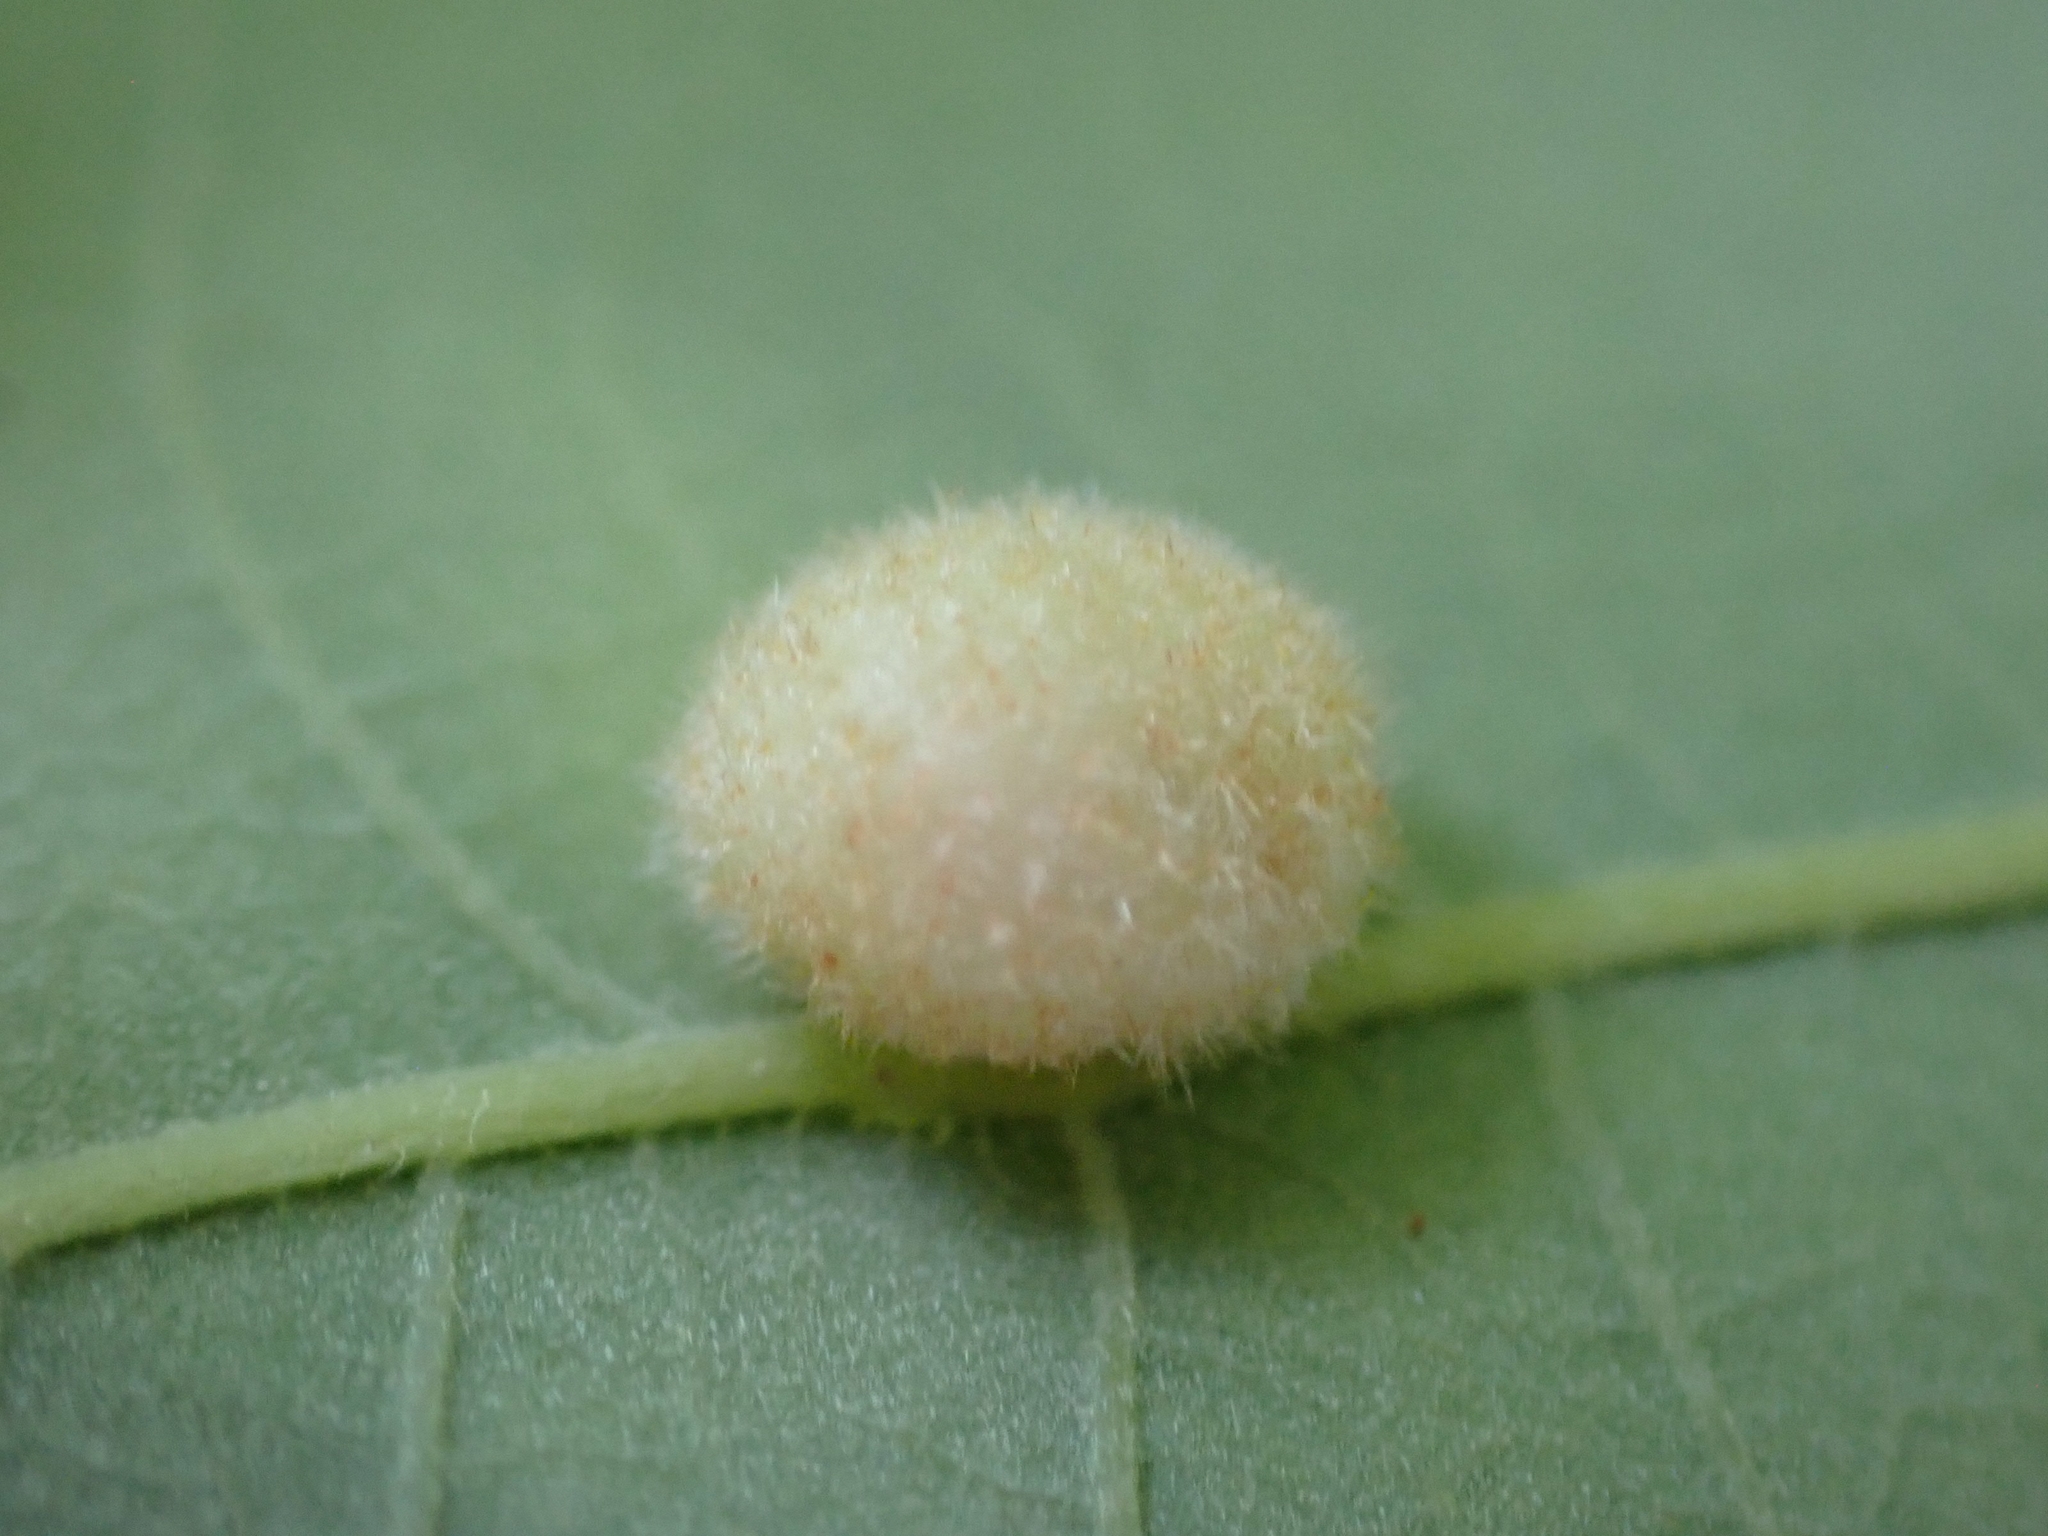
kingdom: Animalia
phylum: Arthropoda
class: Insecta
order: Hymenoptera
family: Cynipidae
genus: Philonix
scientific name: Philonix fulvicollis
